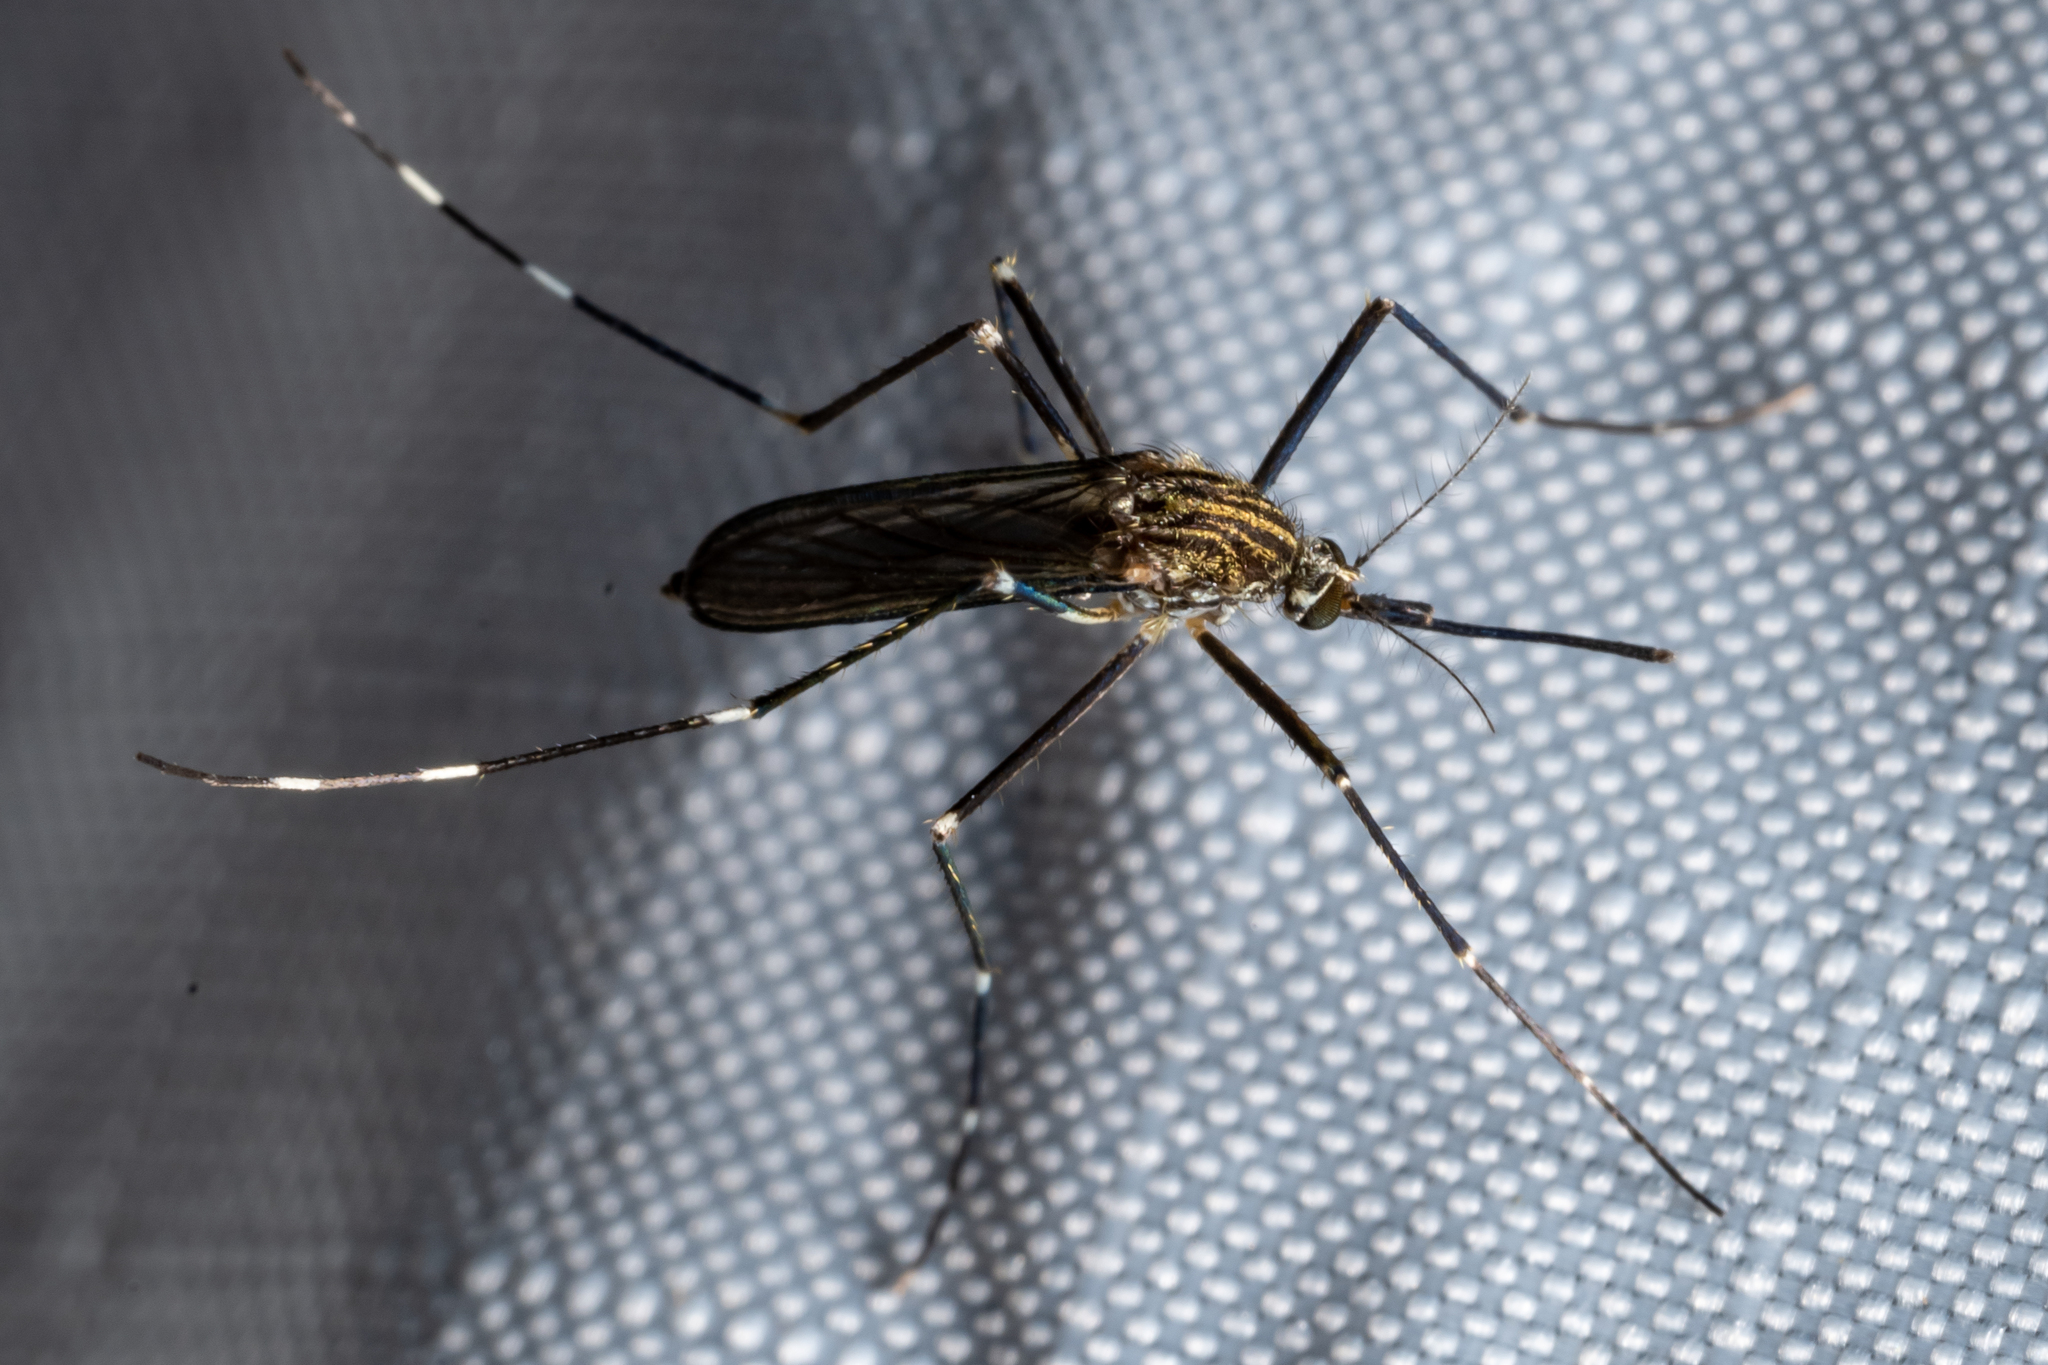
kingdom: Animalia
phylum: Arthropoda
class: Insecta
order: Diptera
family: Culicidae
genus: Aedes
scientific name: Aedes japonicus
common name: Asian bush mosquito
